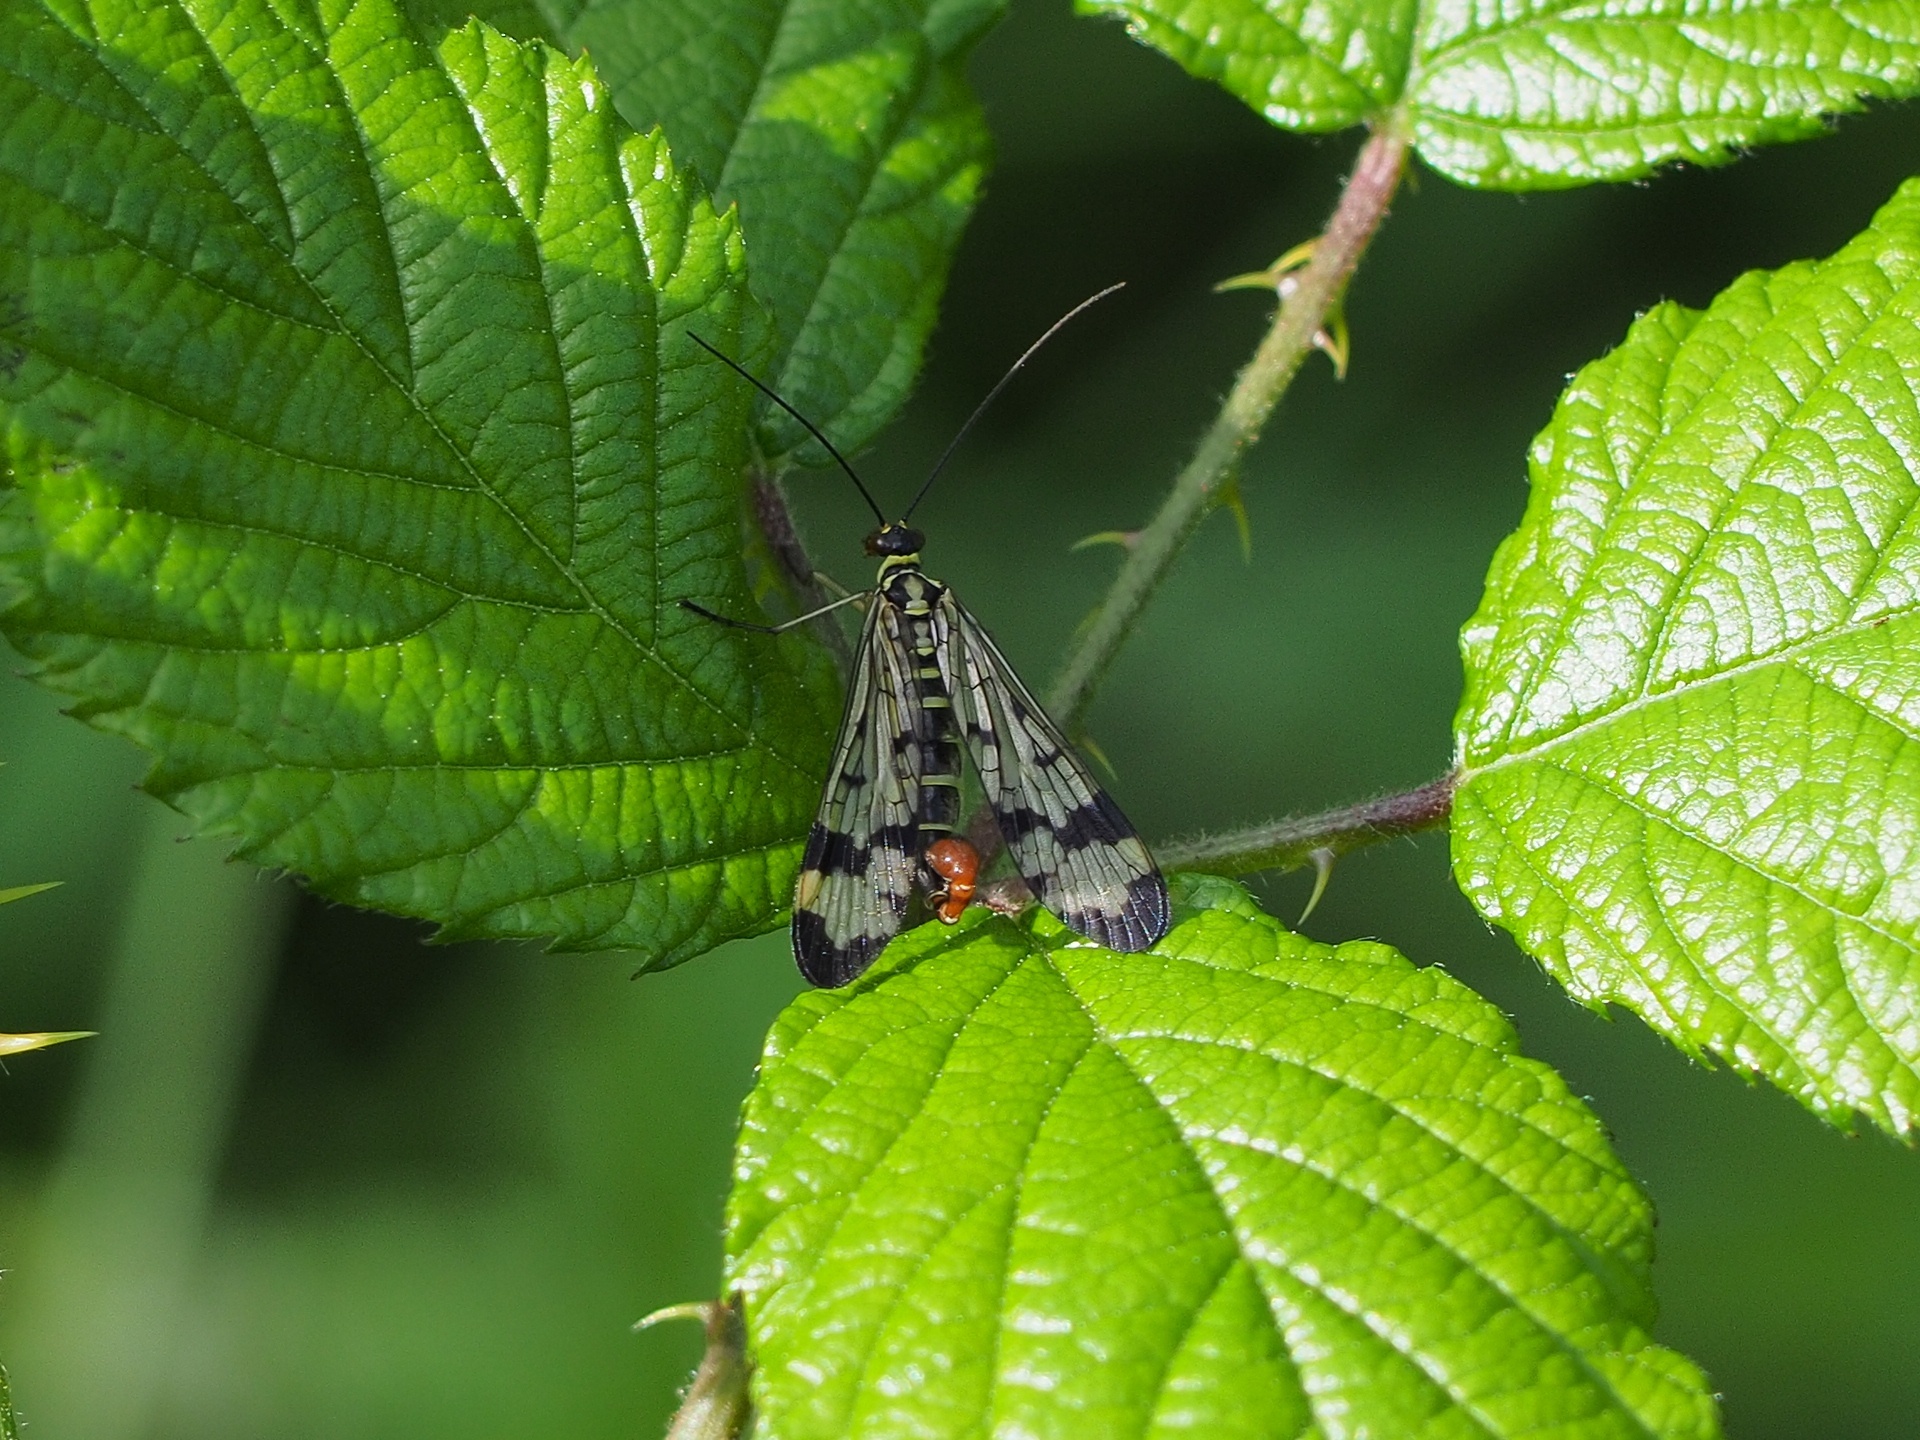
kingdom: Animalia
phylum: Arthropoda
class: Insecta
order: Mecoptera
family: Panorpidae
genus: Panorpa
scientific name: Panorpa communis
